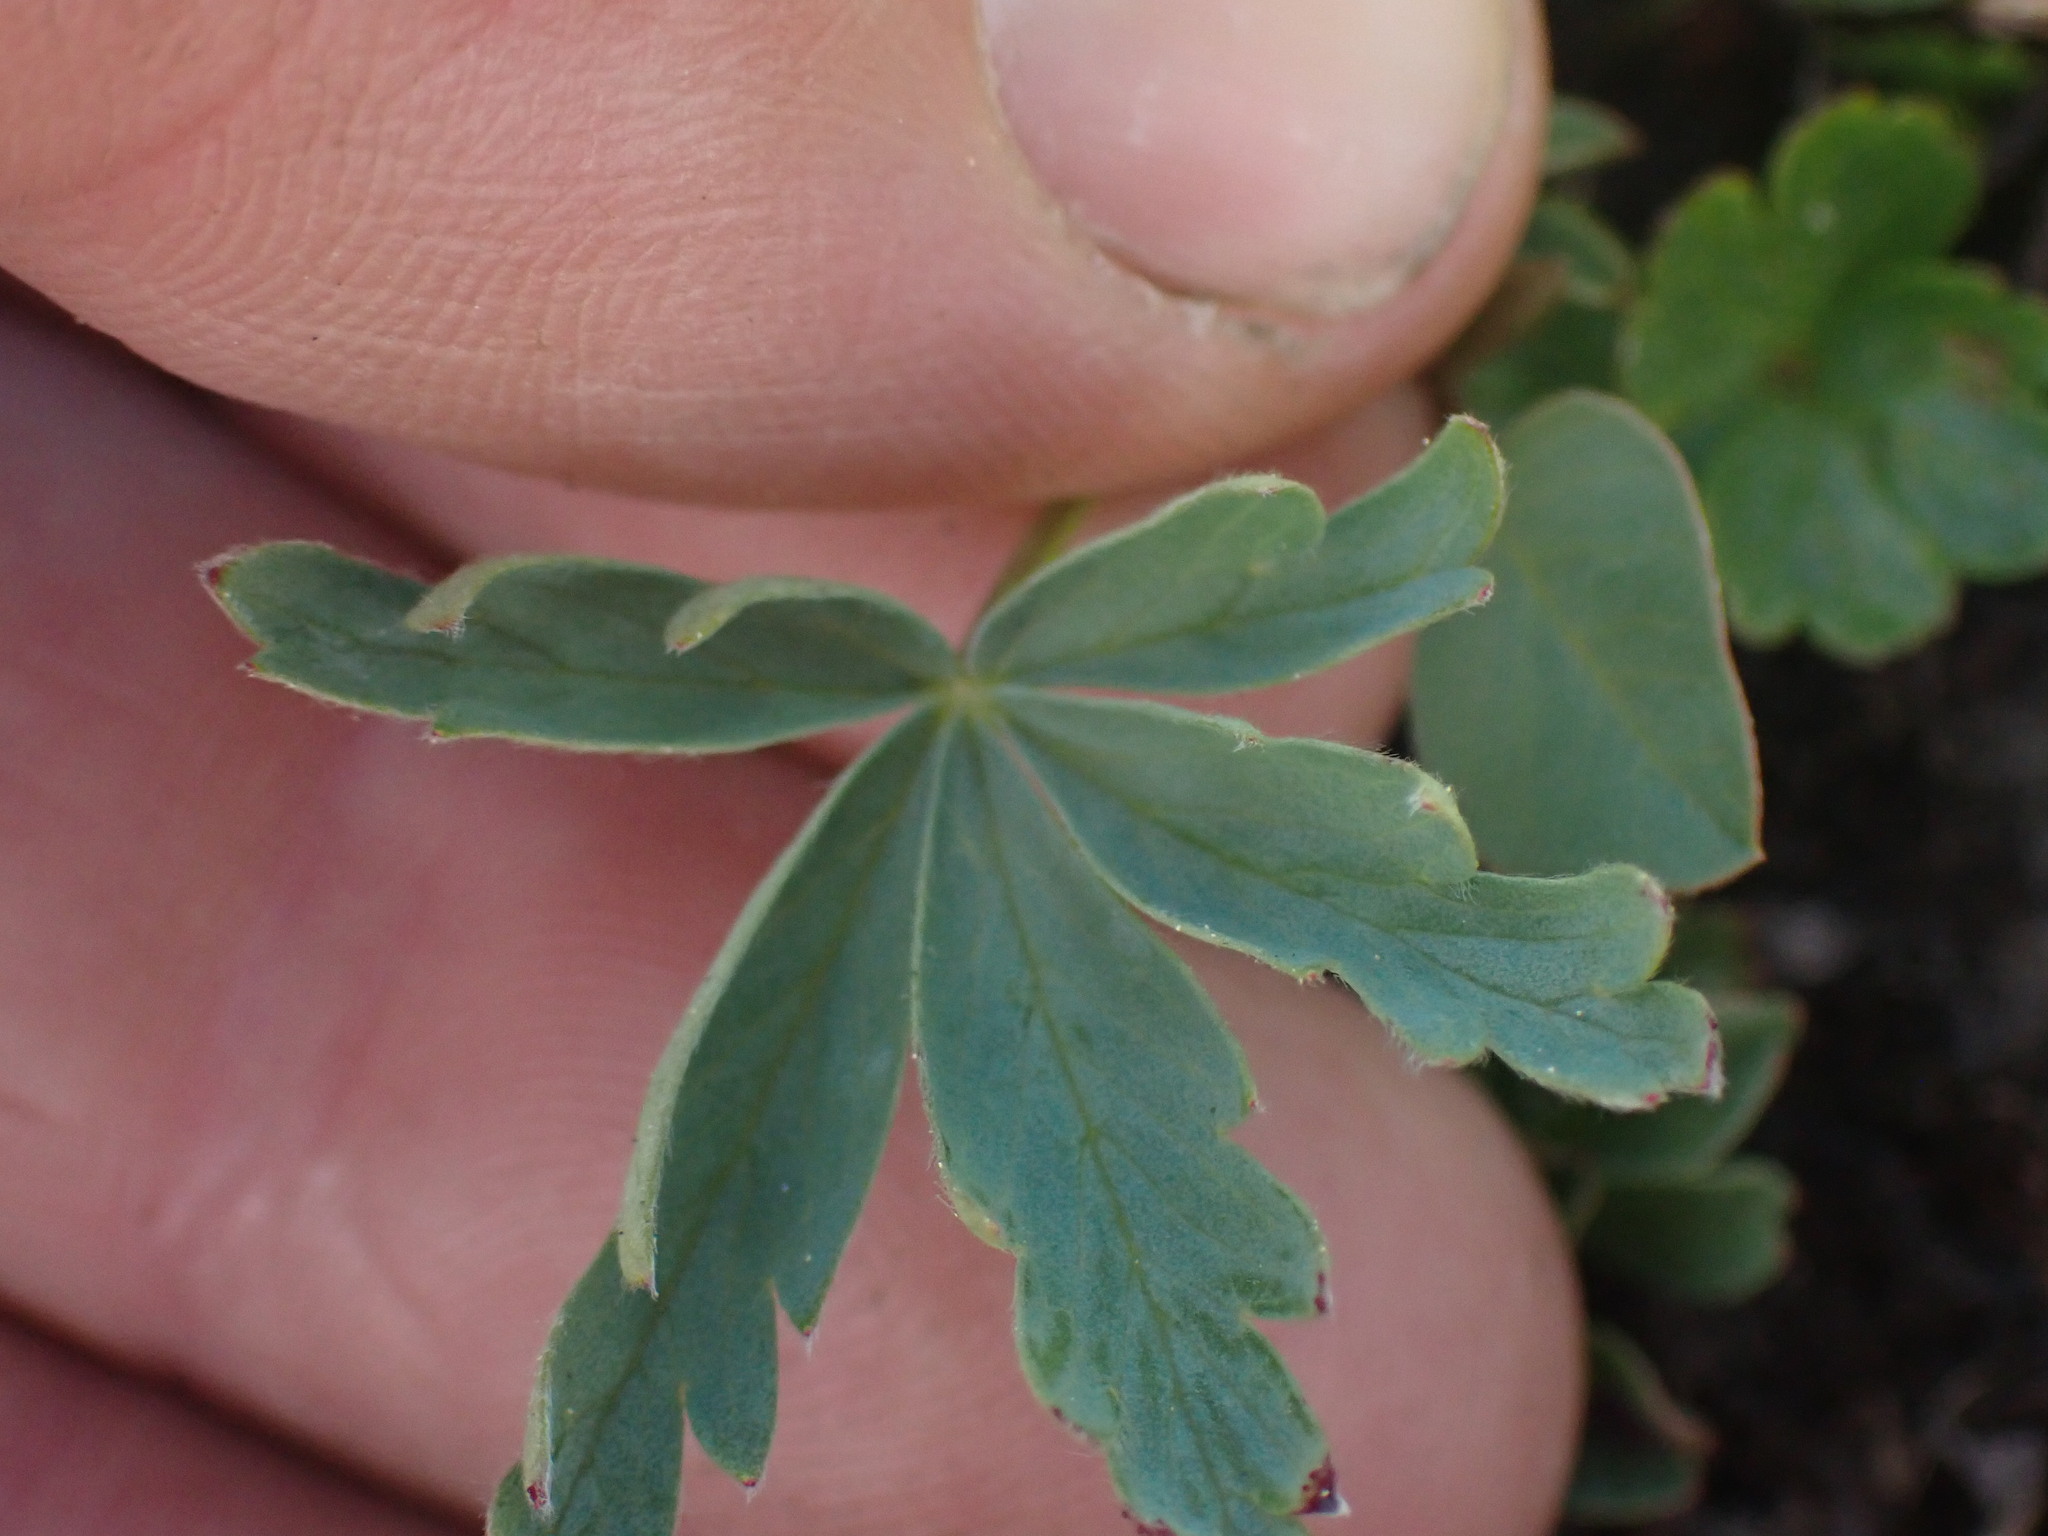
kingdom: Plantae
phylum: Tracheophyta
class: Magnoliopsida
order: Rosales
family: Rosaceae
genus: Potentilla
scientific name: Potentilla glaucophylla
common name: Blue-leaved cinquefoil
